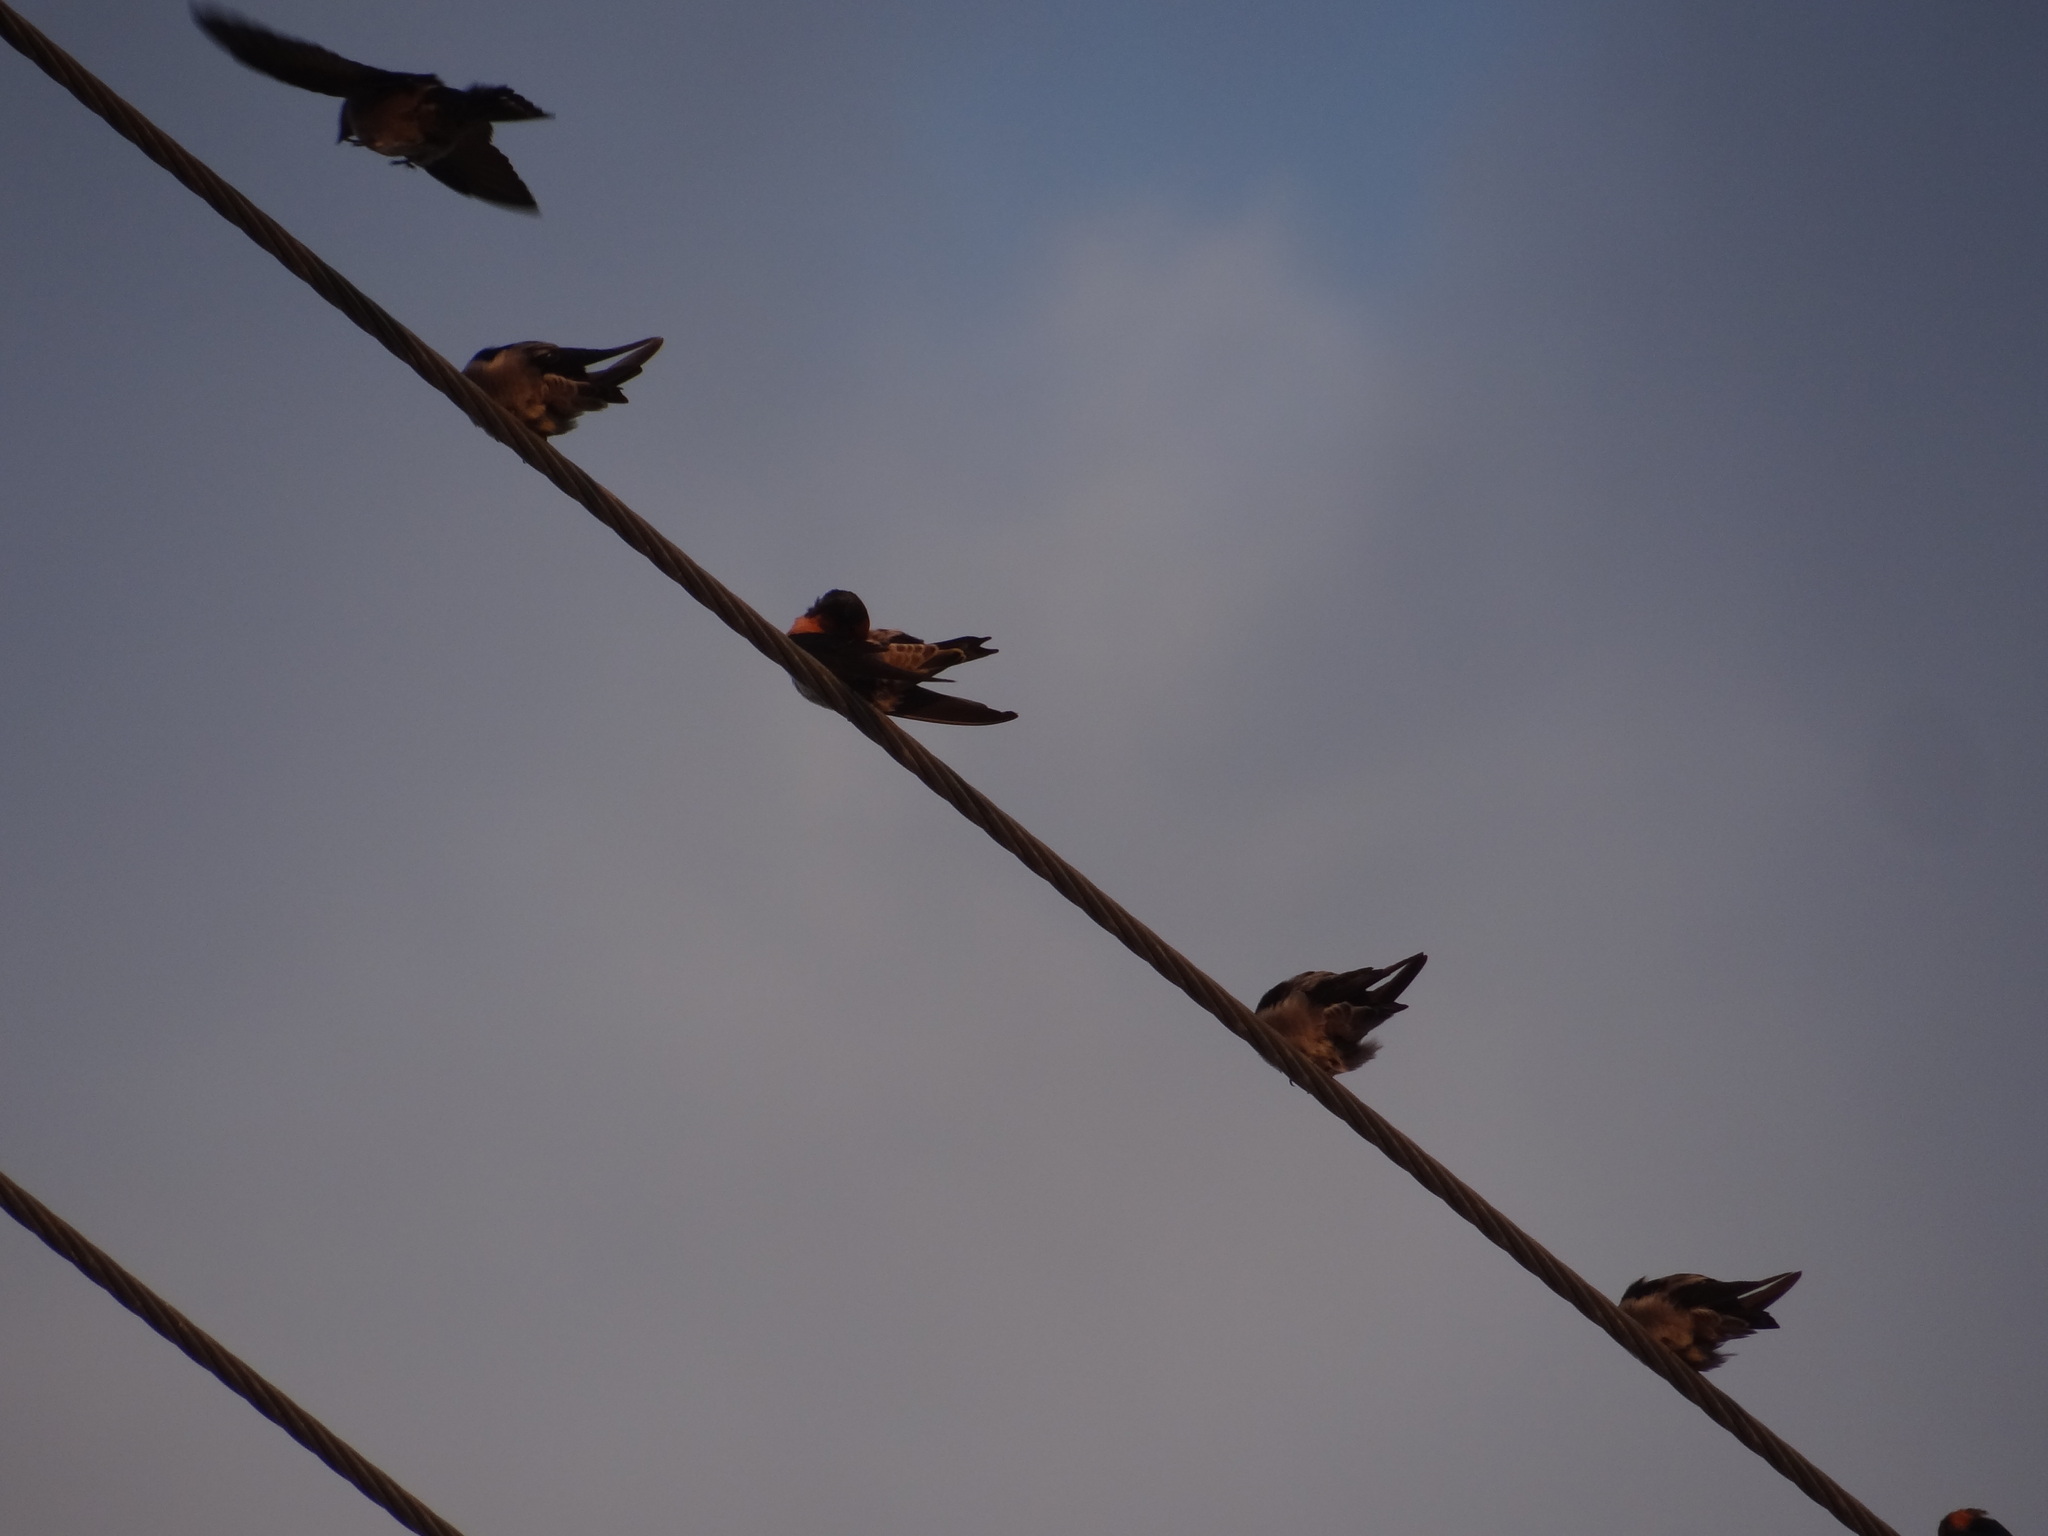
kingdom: Animalia
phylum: Chordata
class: Aves
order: Passeriformes
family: Hirundinidae
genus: Hirundo
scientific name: Hirundo tahitica
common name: Pacific swallow
